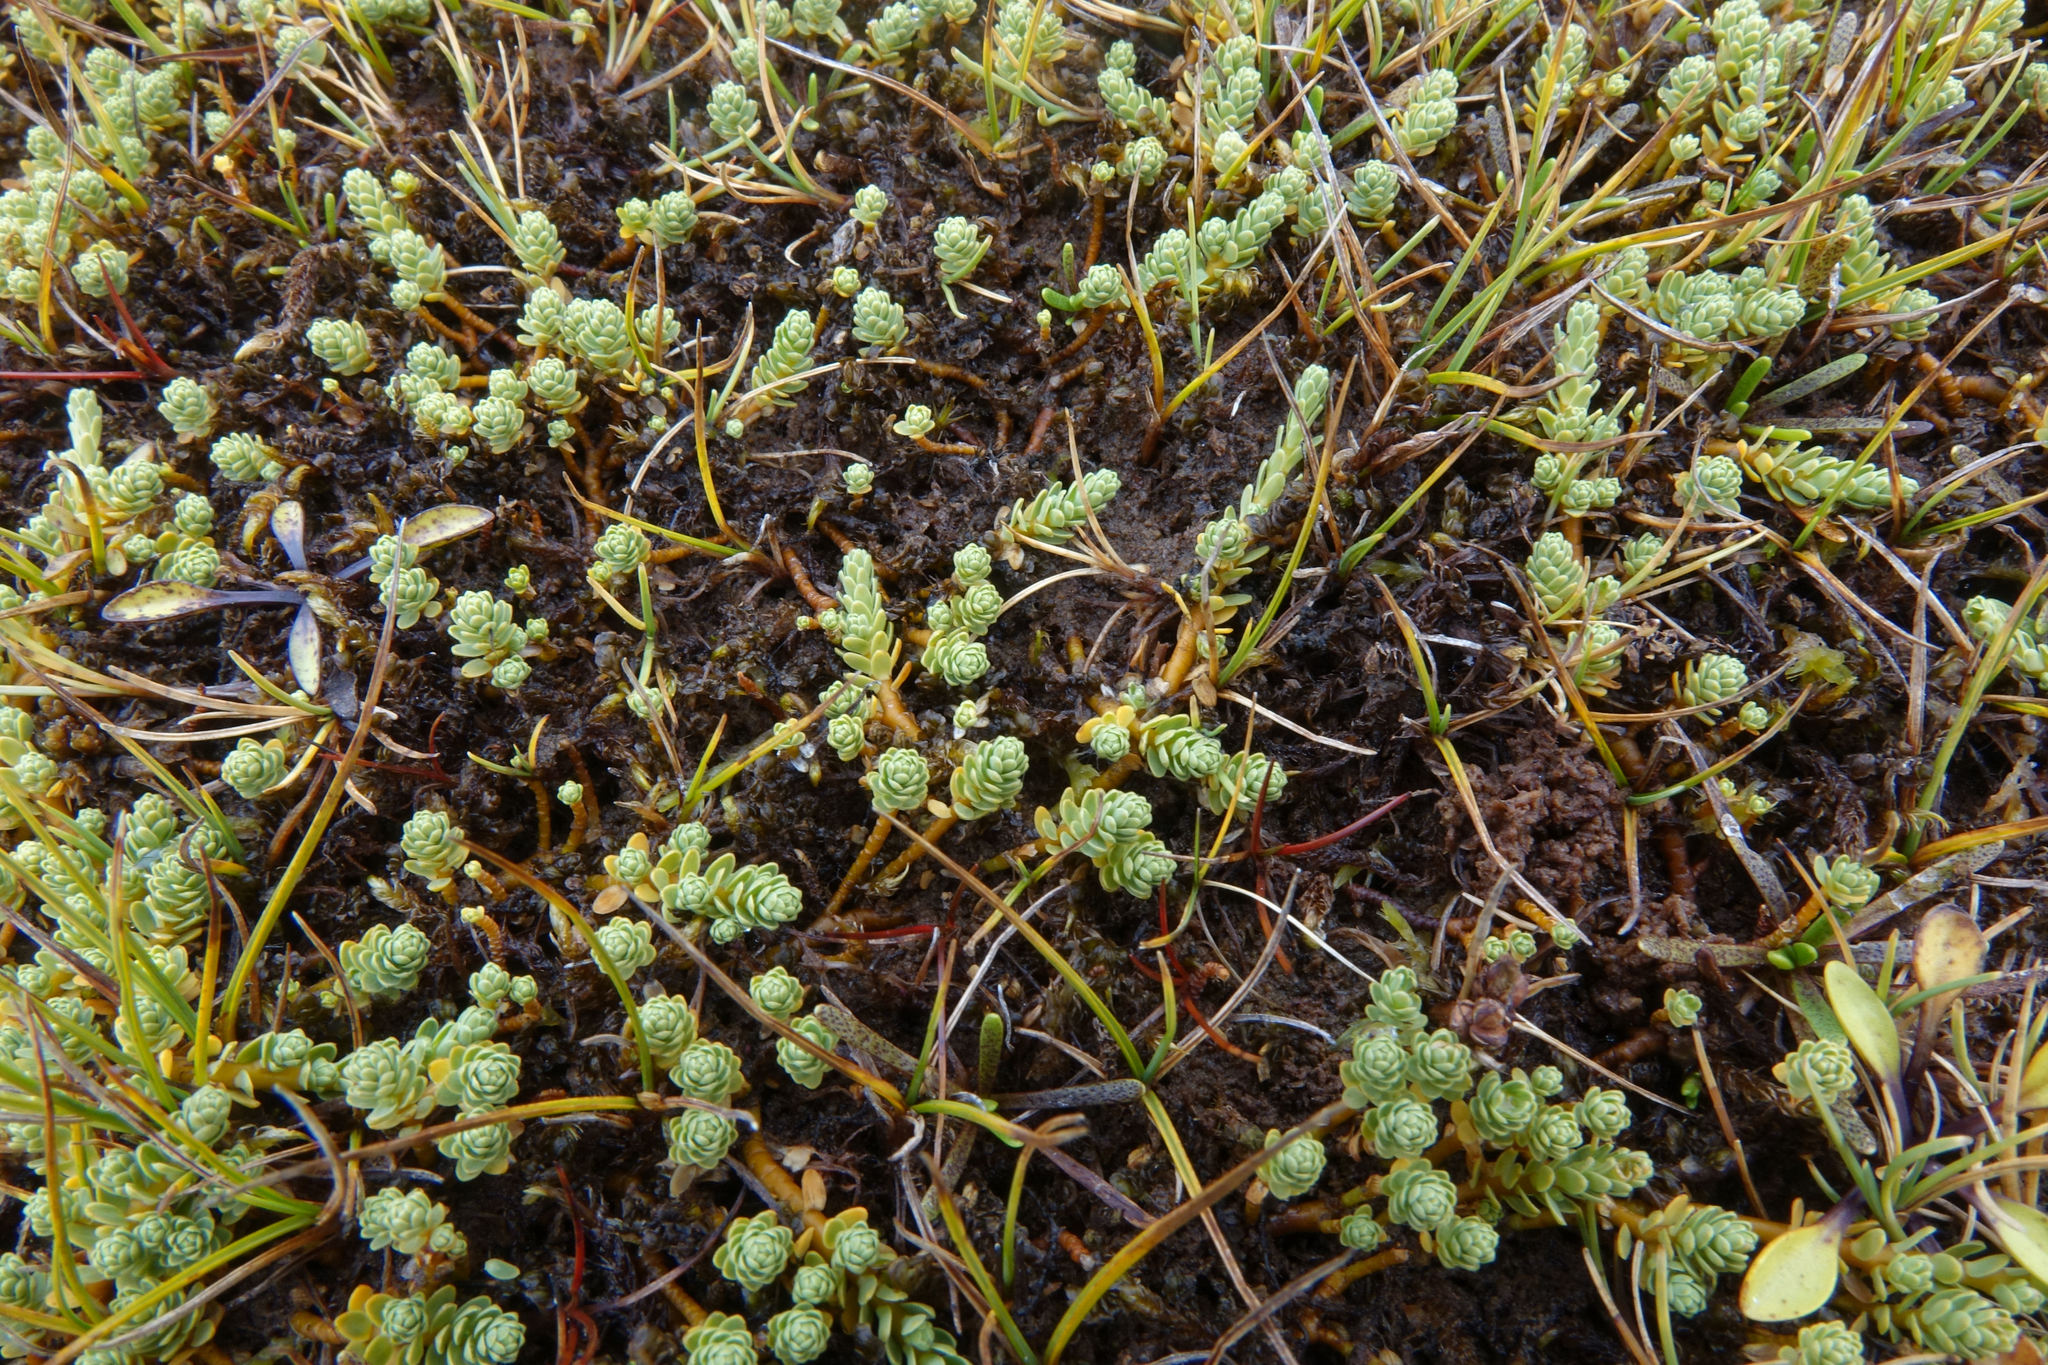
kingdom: Plantae
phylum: Tracheophyta
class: Magnoliopsida
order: Malvales
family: Thymelaeaceae
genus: Kelleria
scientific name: Kelleria paludosa
